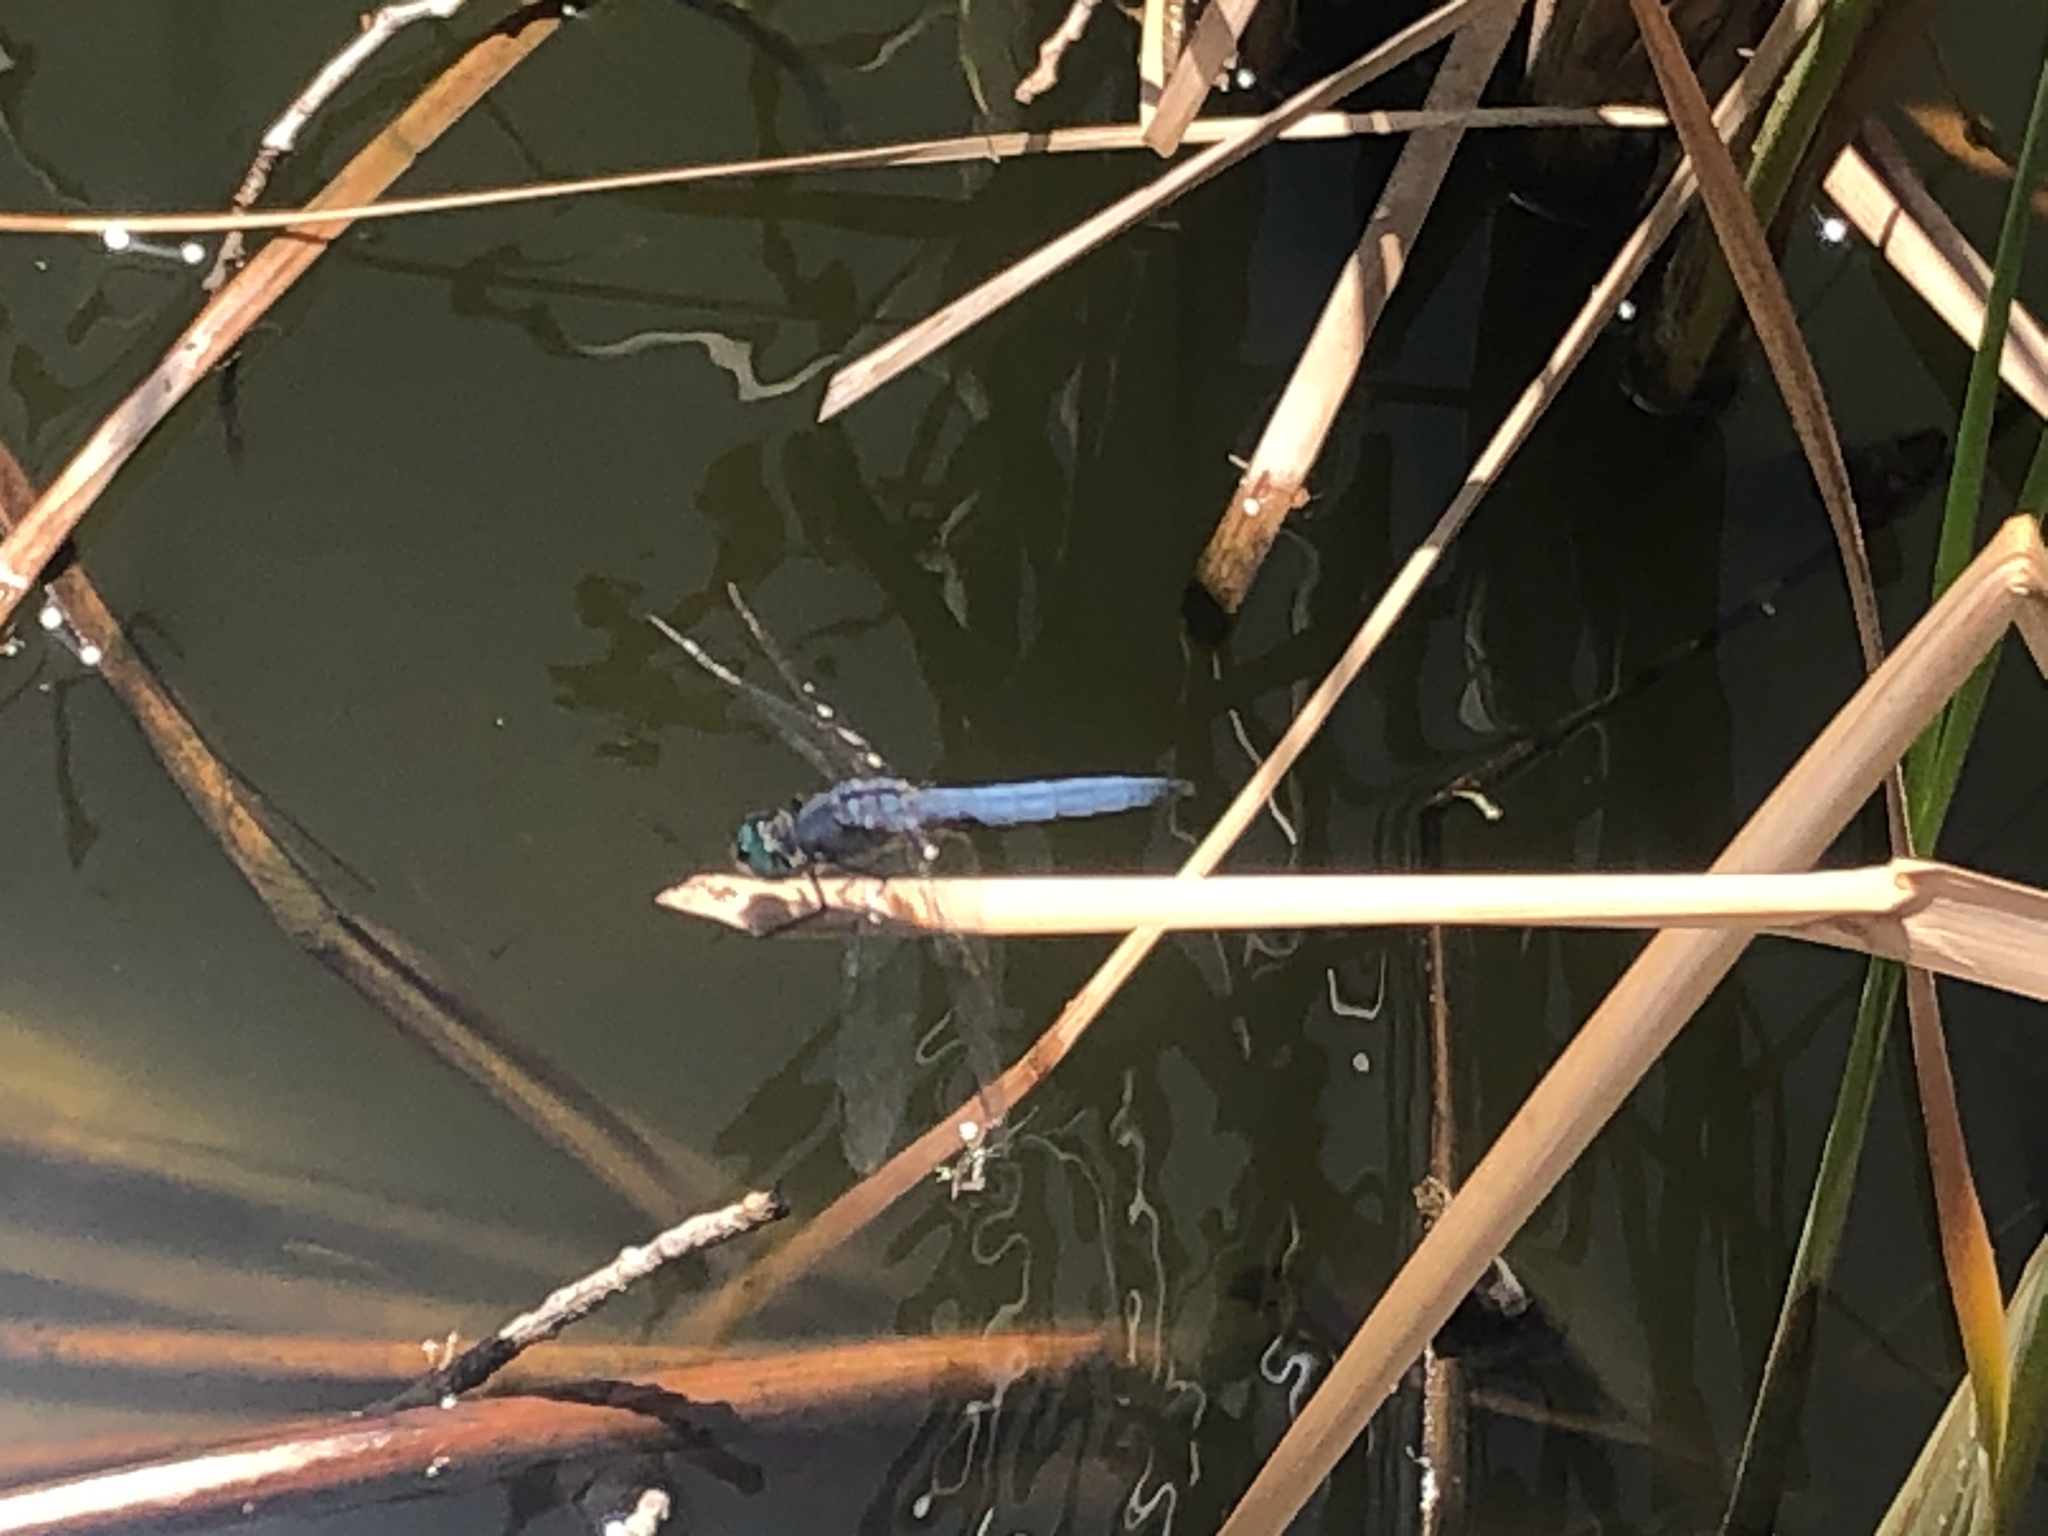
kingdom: Animalia
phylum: Arthropoda
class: Insecta
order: Odonata
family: Libellulidae
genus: Pachydiplax
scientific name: Pachydiplax longipennis
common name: Blue dasher
